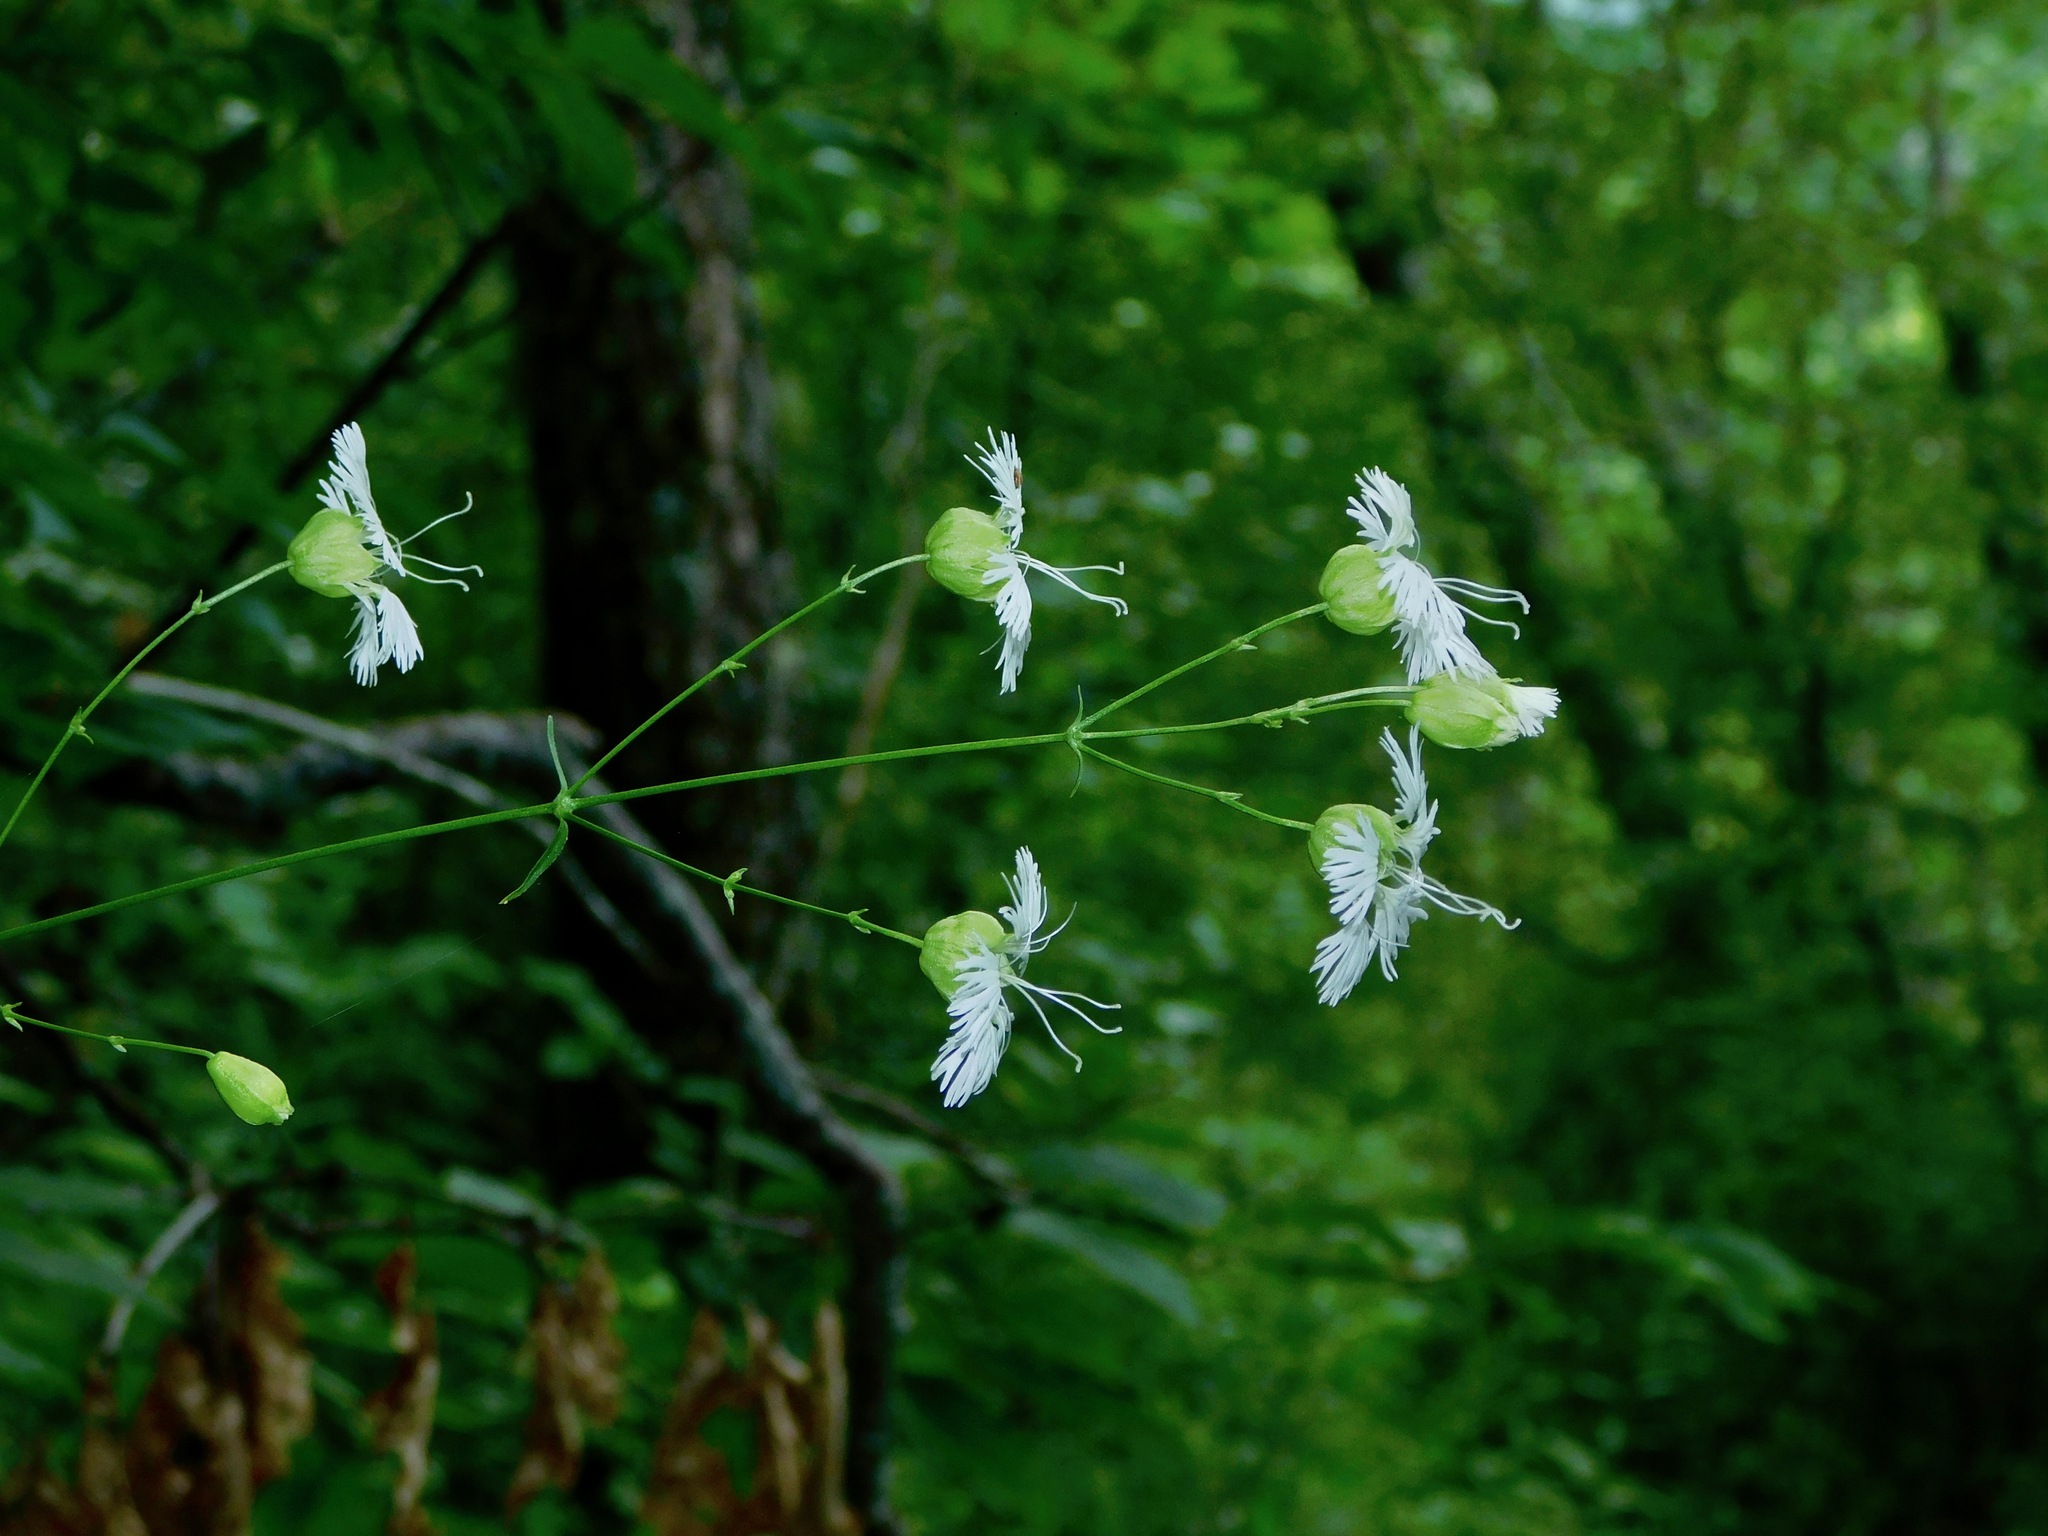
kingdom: Plantae
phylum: Tracheophyta
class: Magnoliopsida
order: Caryophyllales
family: Caryophyllaceae
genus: Silene
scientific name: Silene stellata
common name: Starry campion
